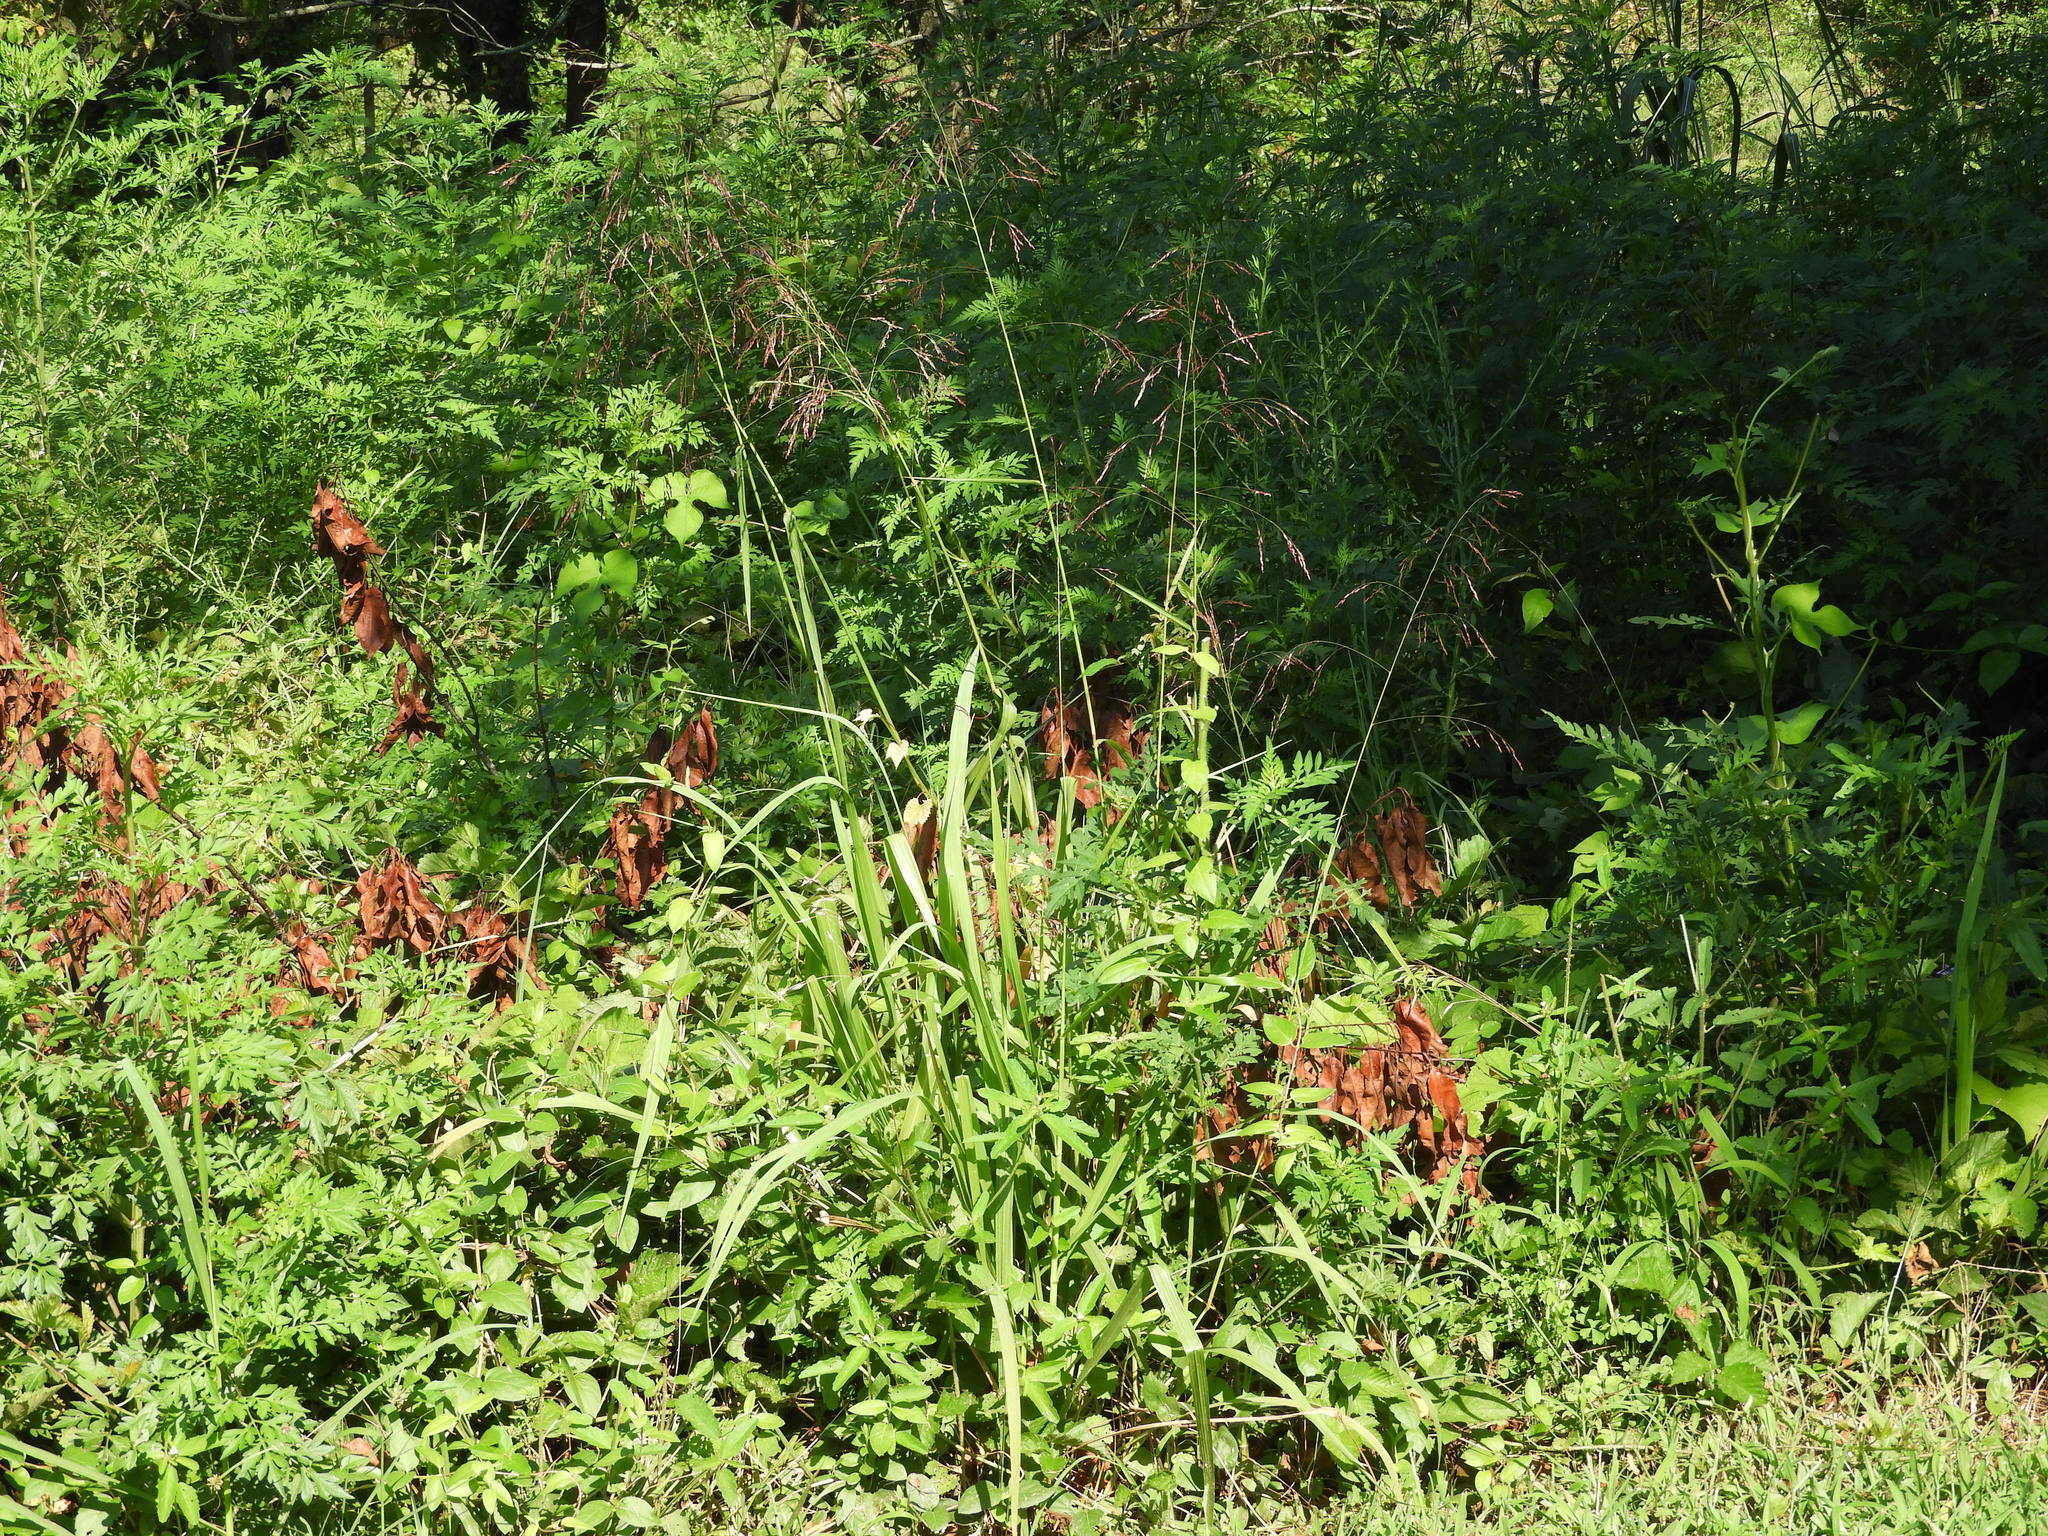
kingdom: Plantae
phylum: Tracheophyta
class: Liliopsida
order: Poales
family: Poaceae
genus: Tridens
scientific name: Tridens flavus
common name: Purpletop
